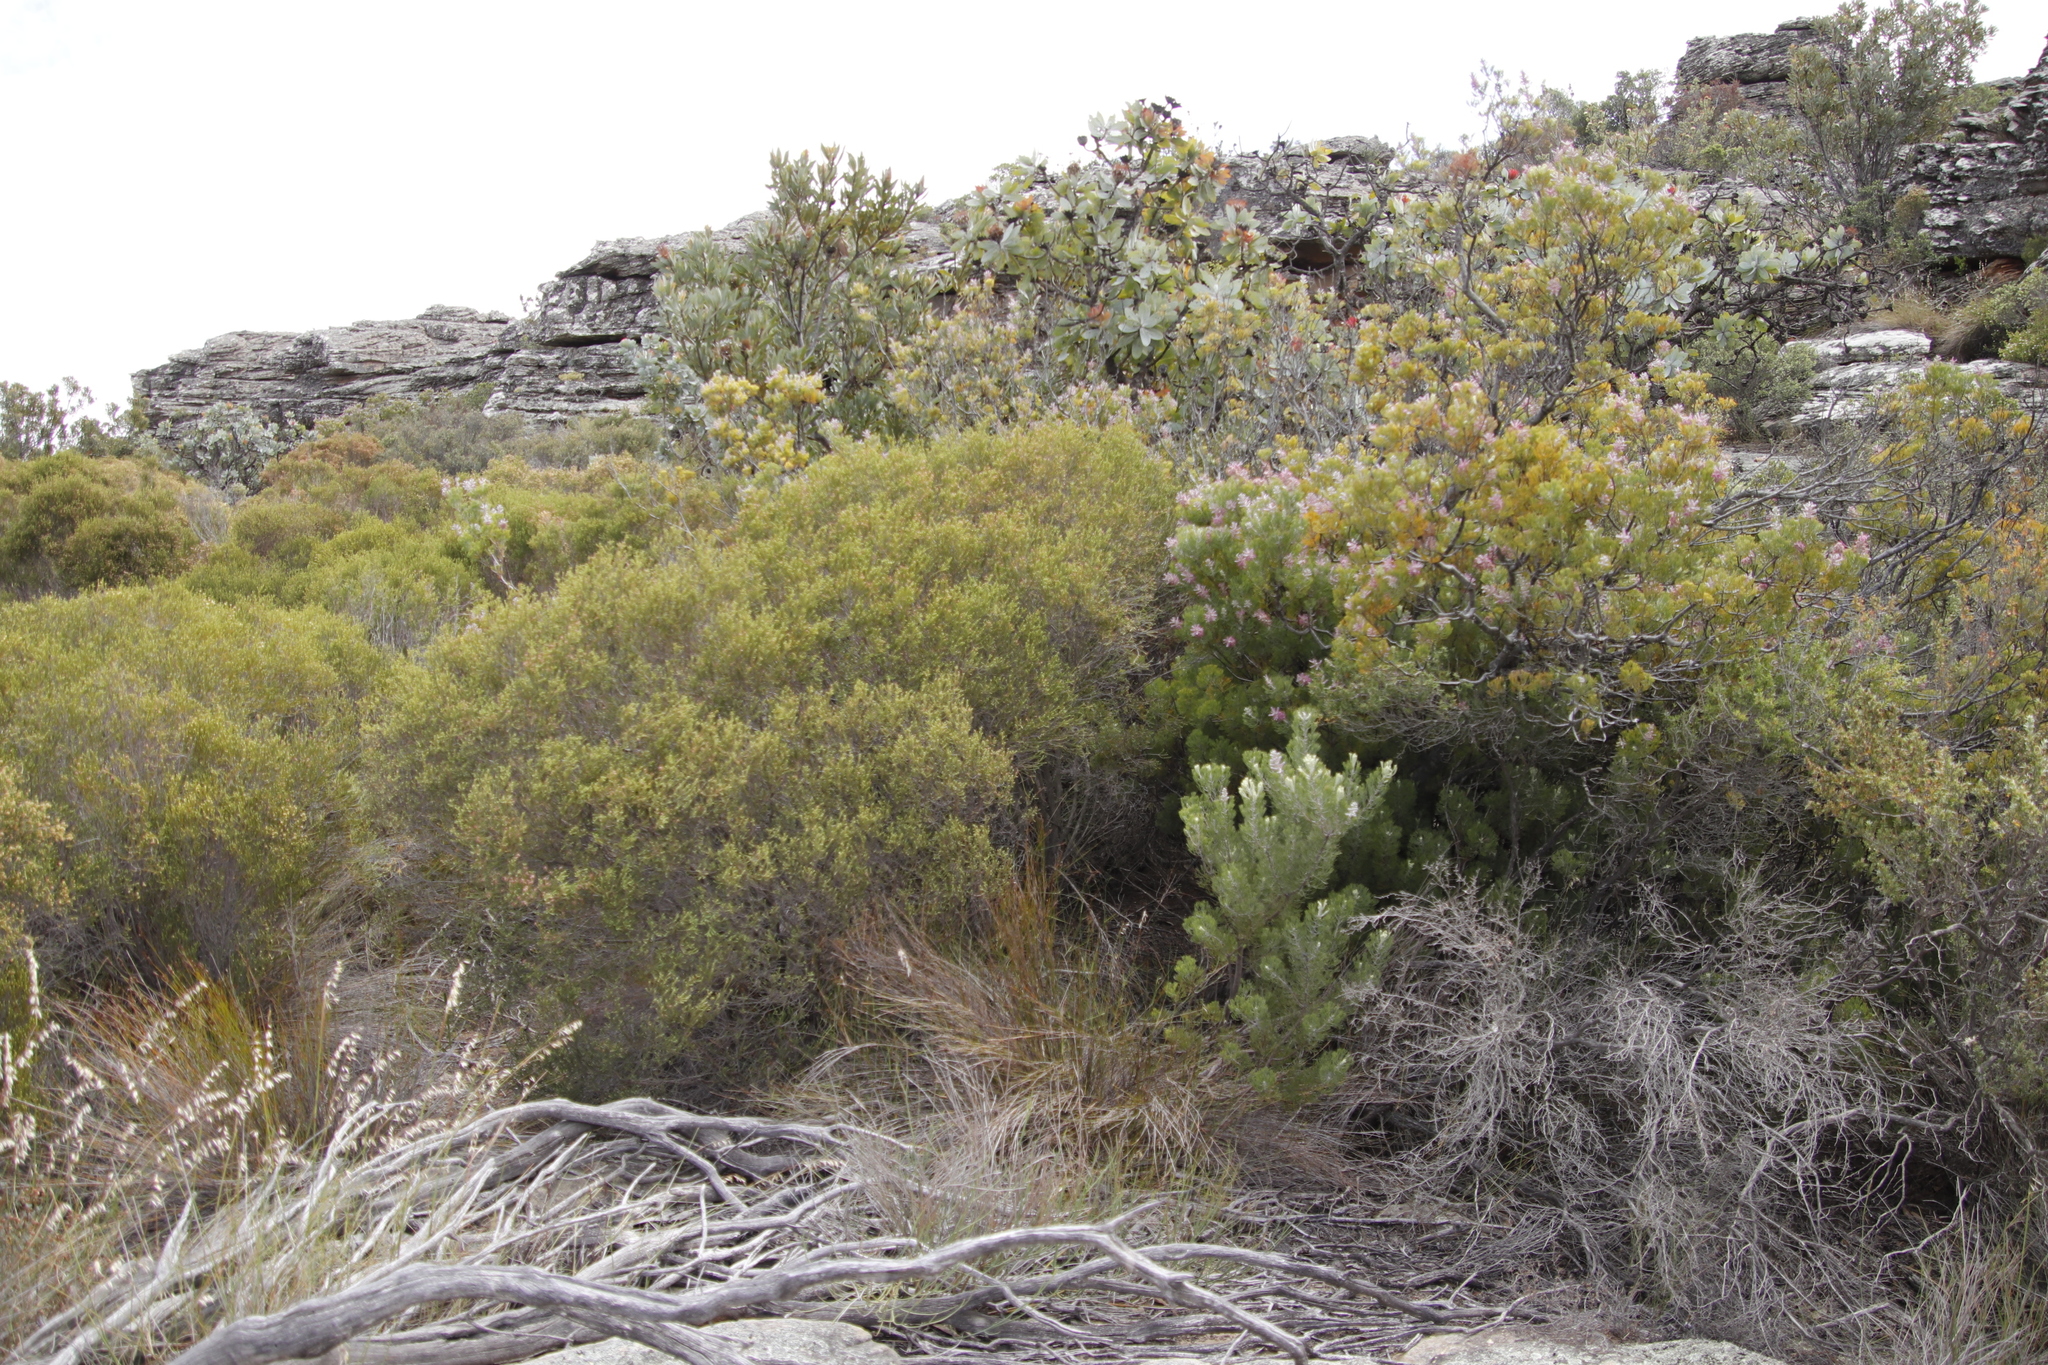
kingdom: Plantae
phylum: Tracheophyta
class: Magnoliopsida
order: Proteales
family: Proteaceae
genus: Paranomus
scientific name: Paranomus bracteolaris
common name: Bokkeveld tree sceptre
